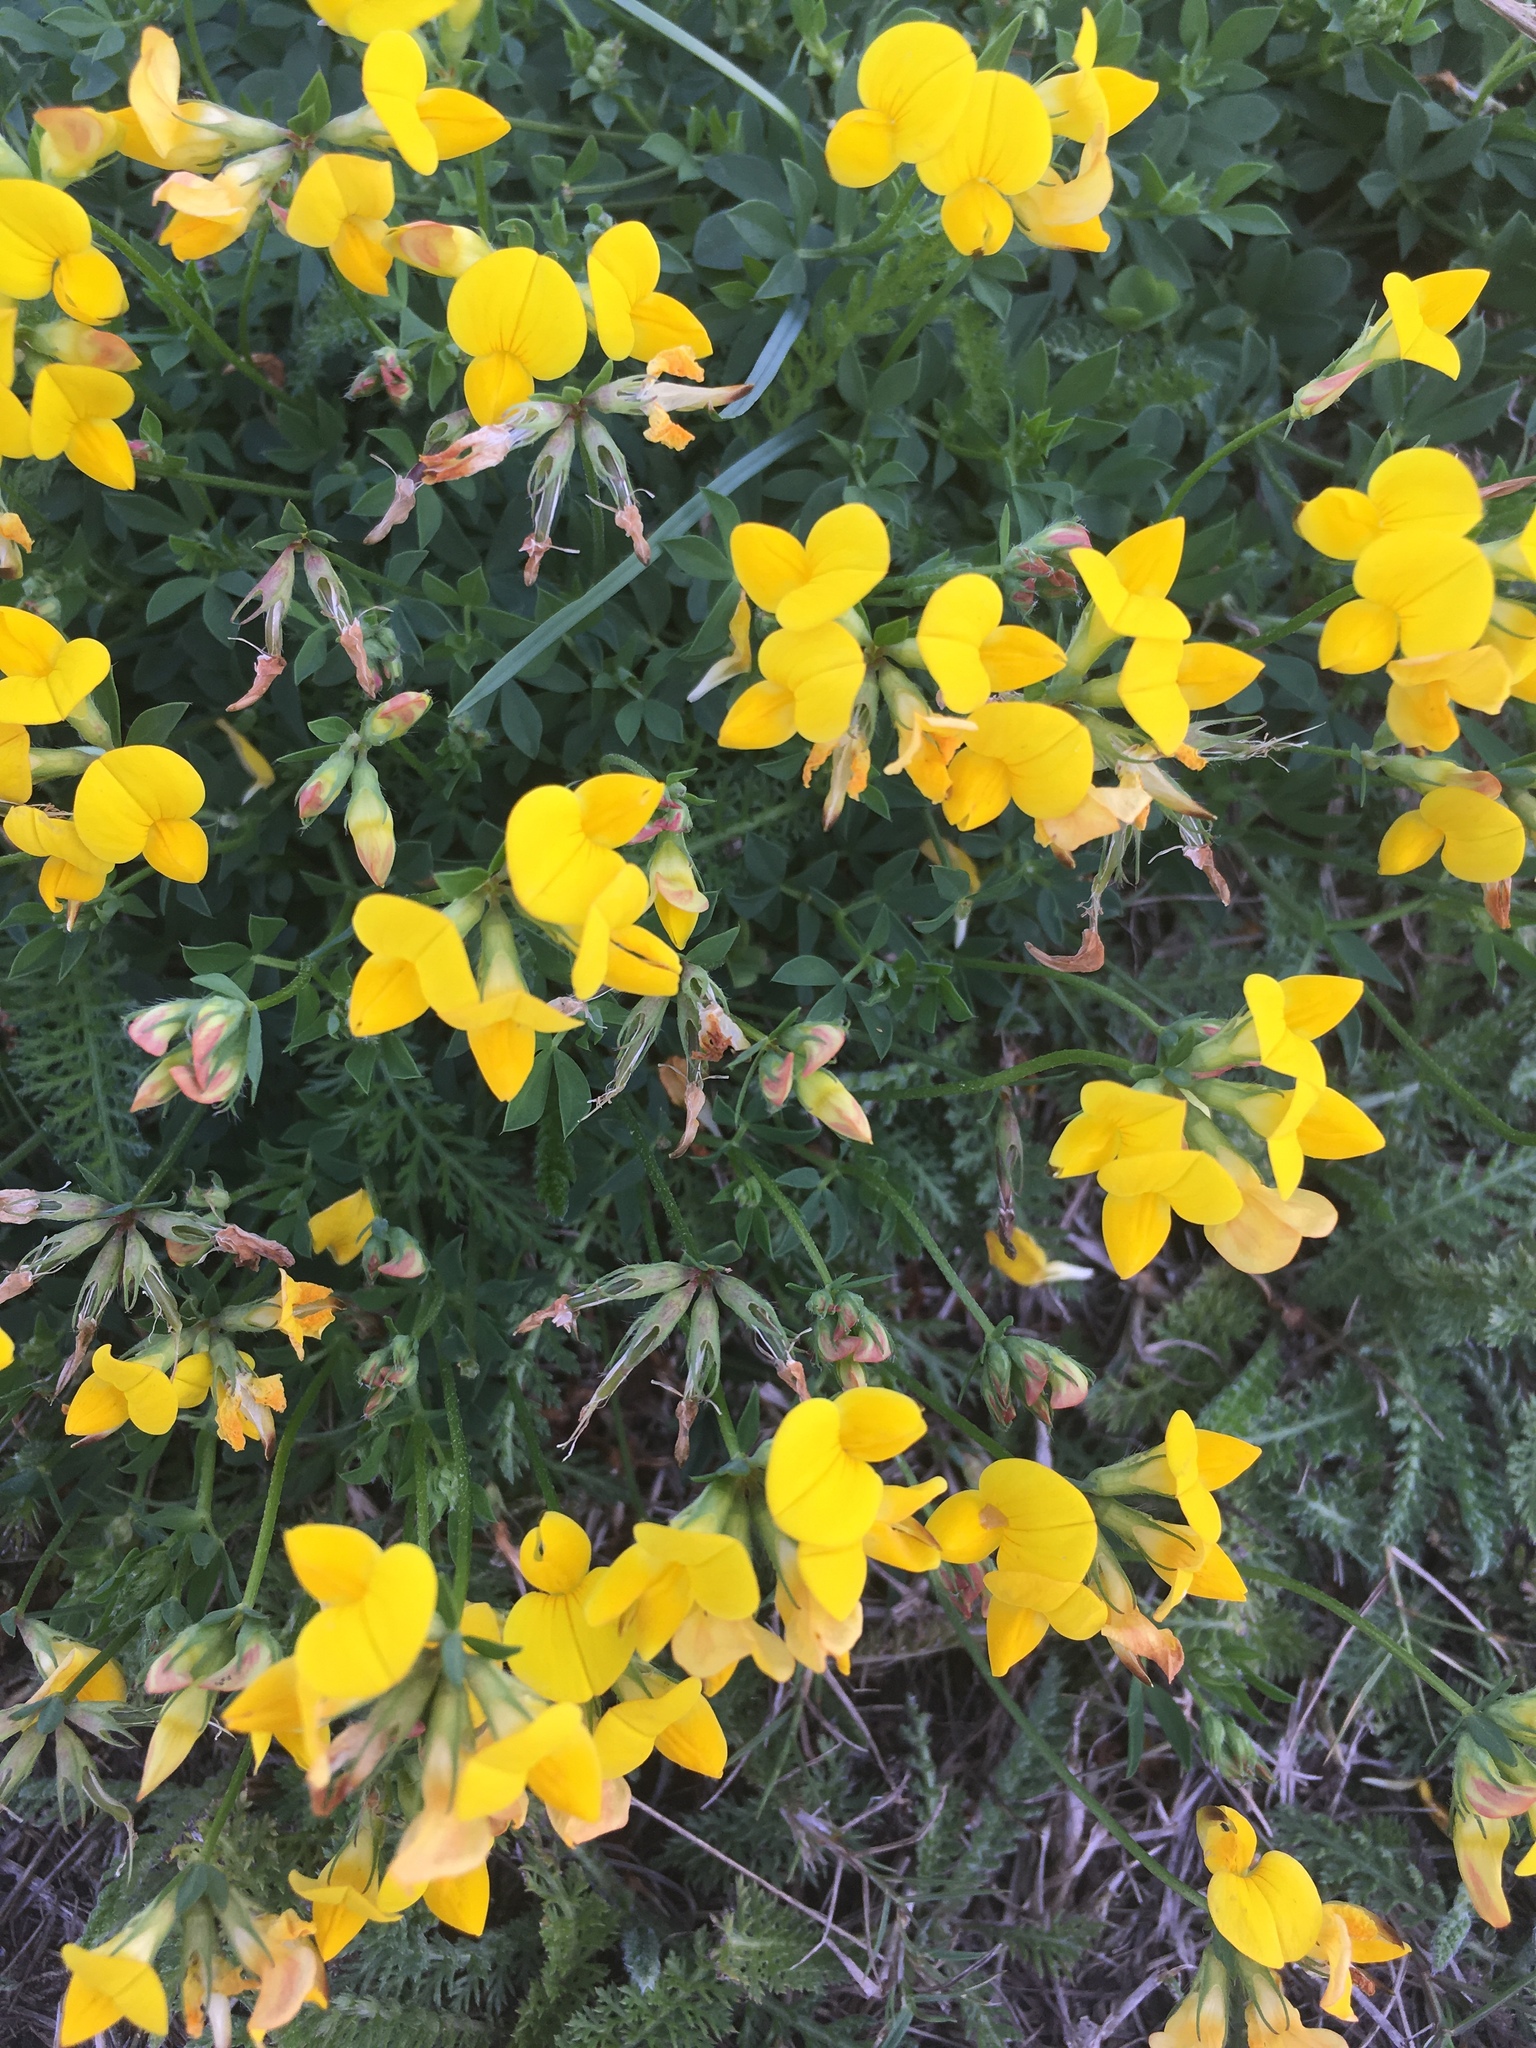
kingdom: Plantae
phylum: Tracheophyta
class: Magnoliopsida
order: Fabales
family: Fabaceae
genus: Lotus
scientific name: Lotus corniculatus
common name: Common bird's-foot-trefoil
